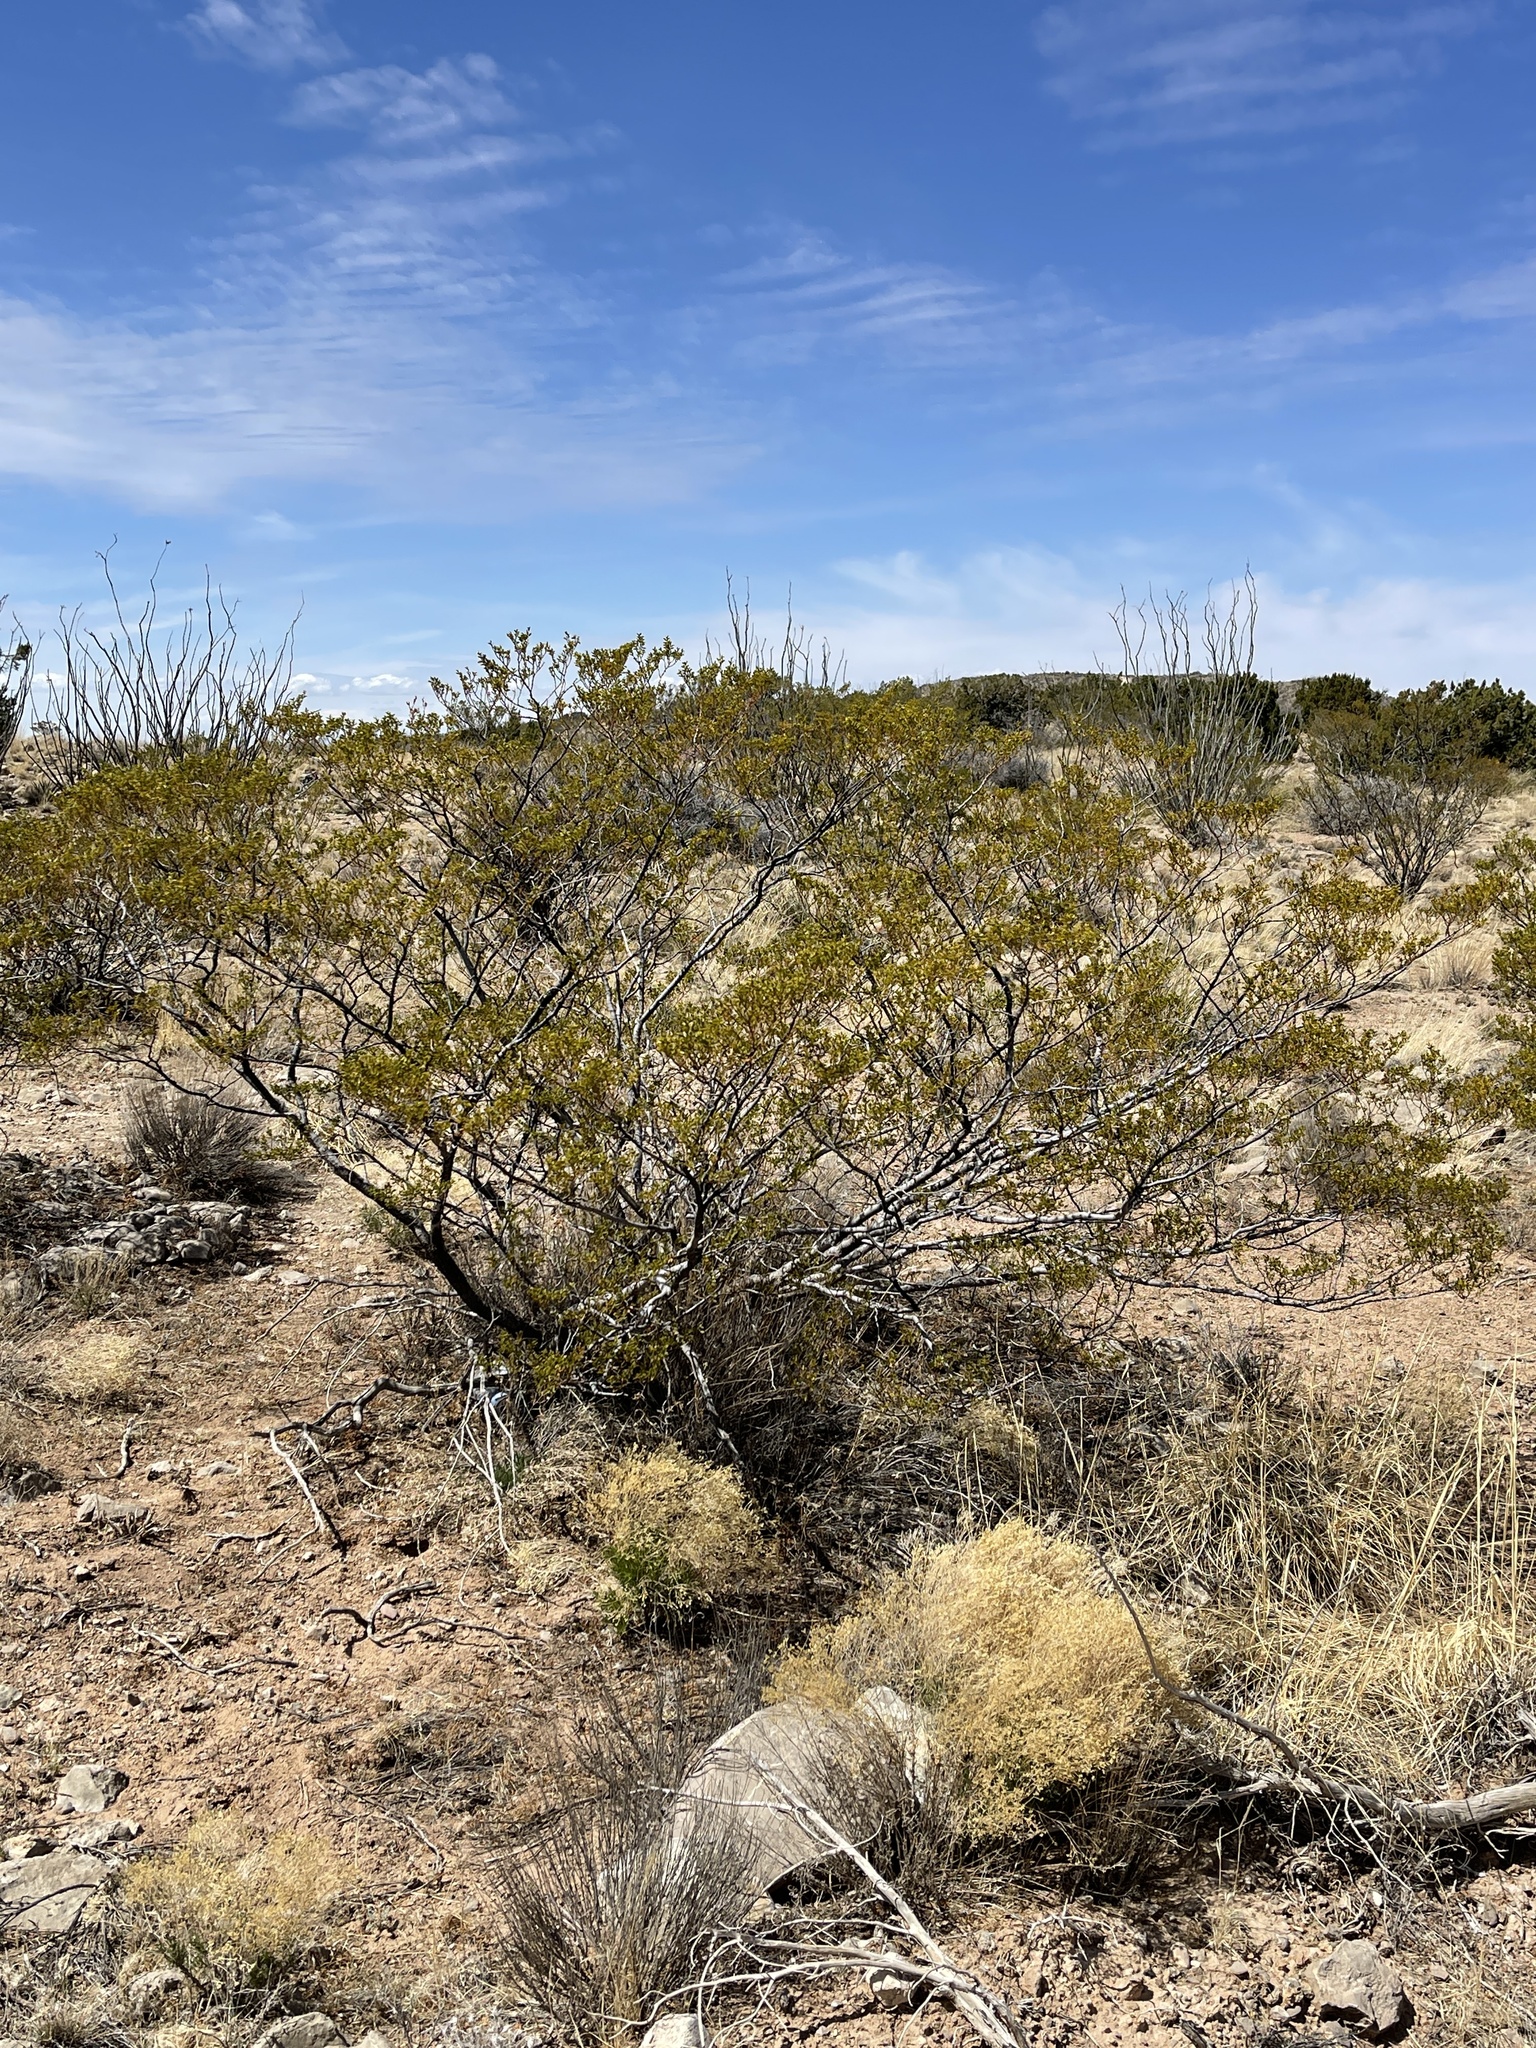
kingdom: Plantae
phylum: Tracheophyta
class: Magnoliopsida
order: Zygophyllales
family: Zygophyllaceae
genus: Larrea
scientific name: Larrea tridentata
